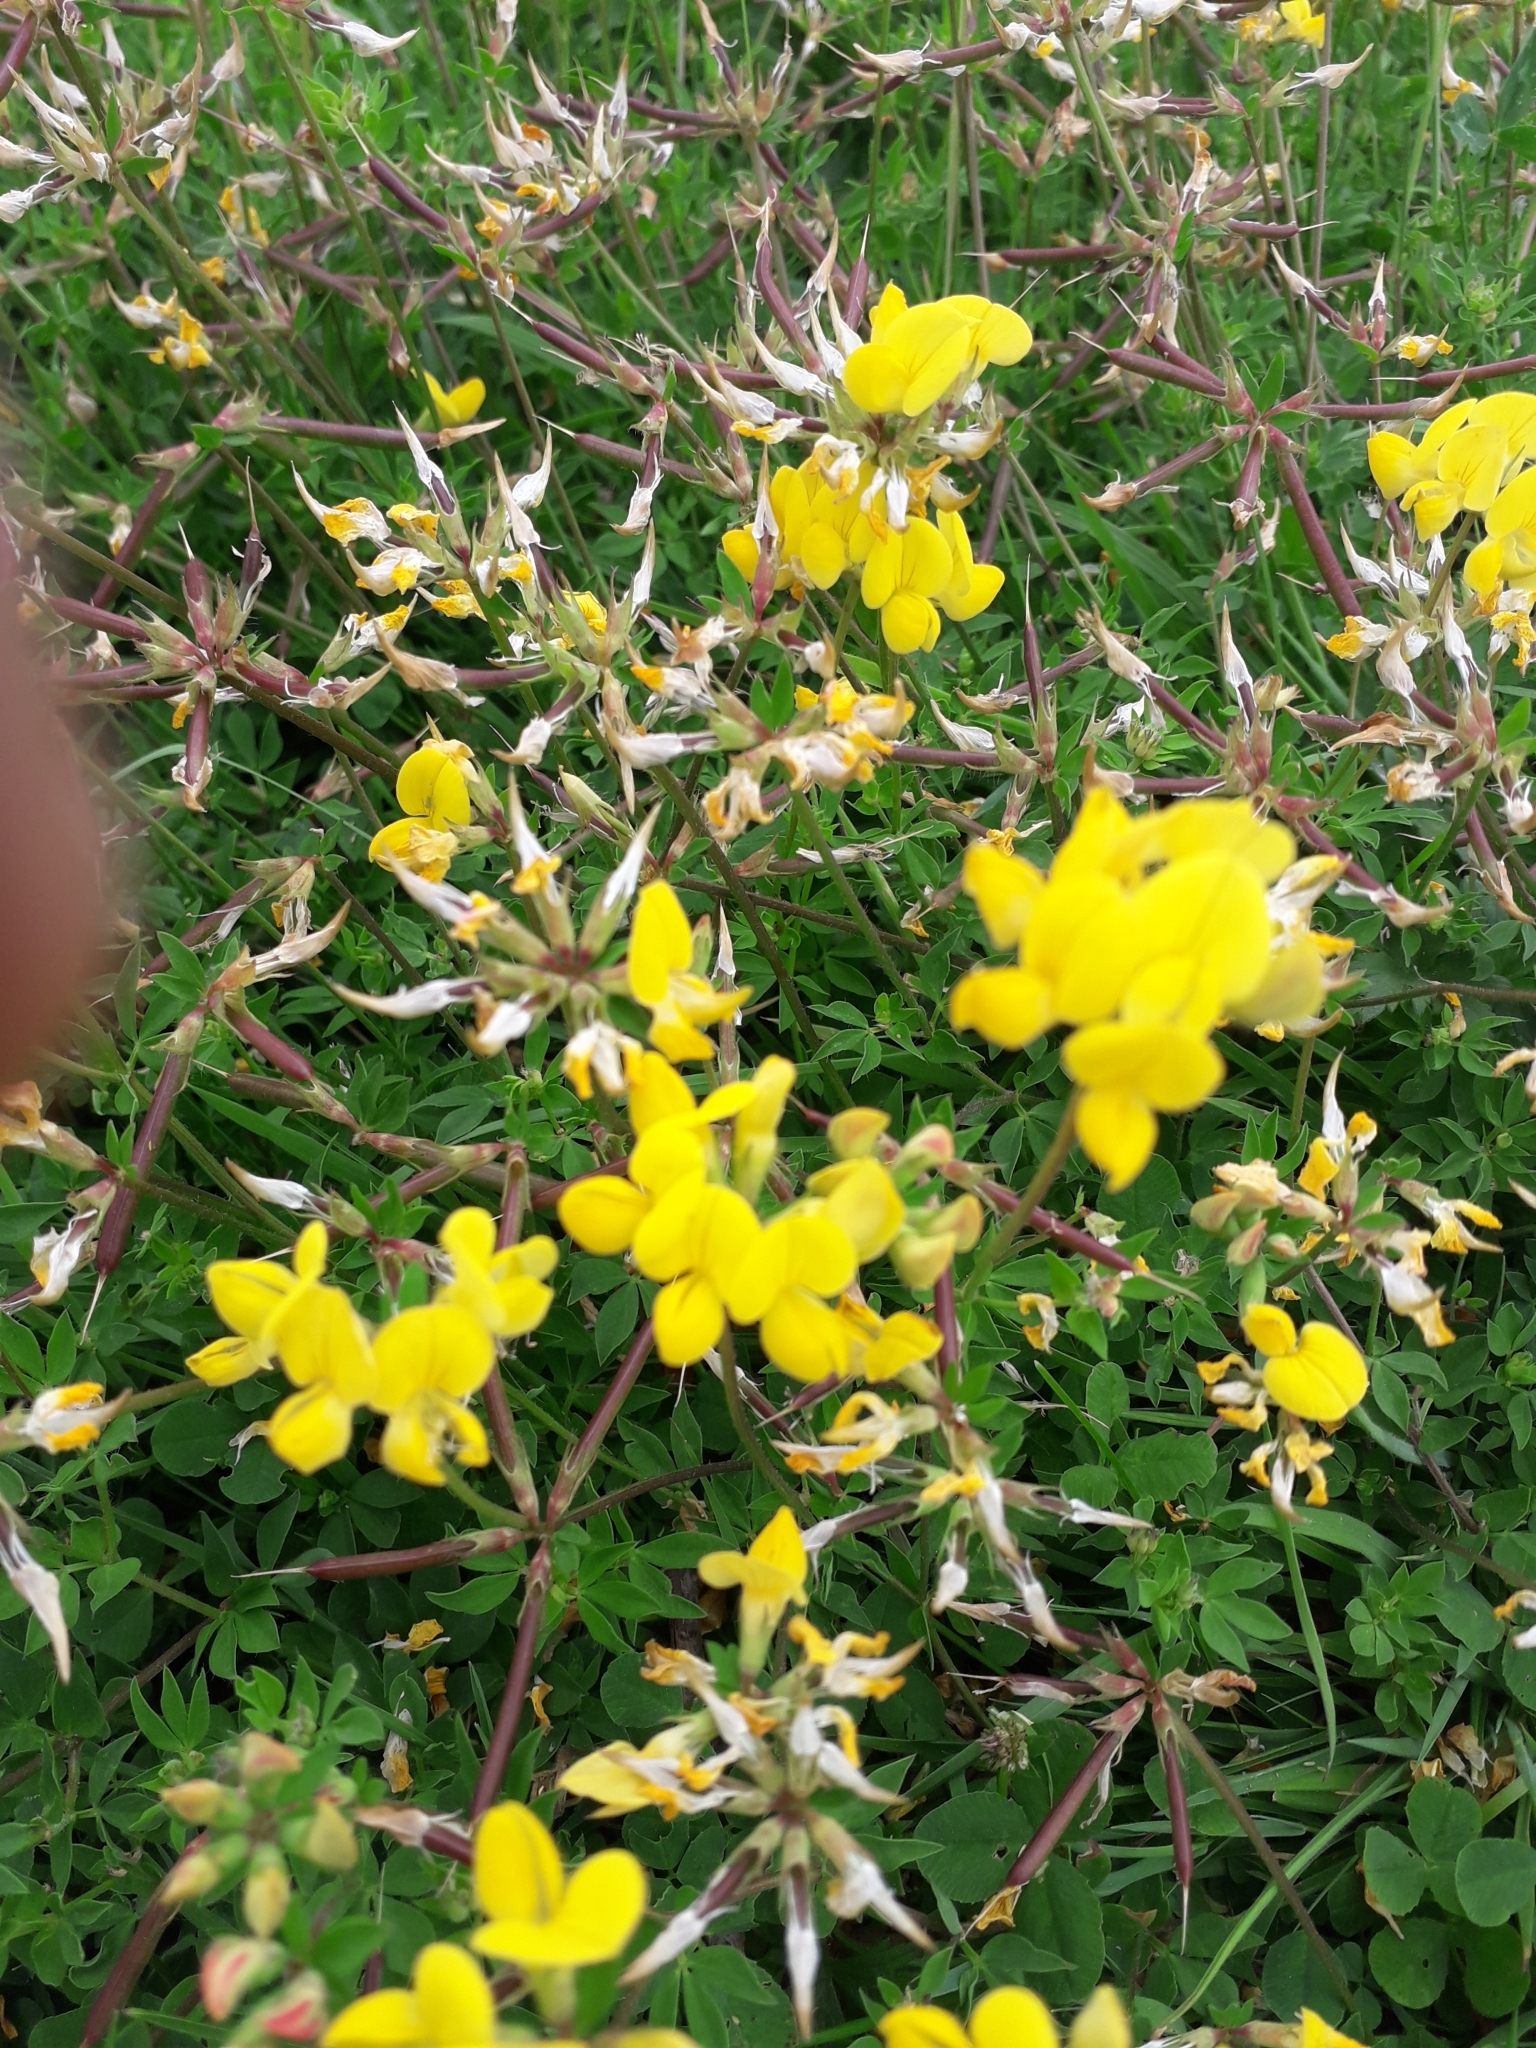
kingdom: Plantae
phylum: Tracheophyta
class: Magnoliopsida
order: Fabales
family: Fabaceae
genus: Lotus
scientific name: Lotus corniculatus
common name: Common bird's-foot-trefoil
